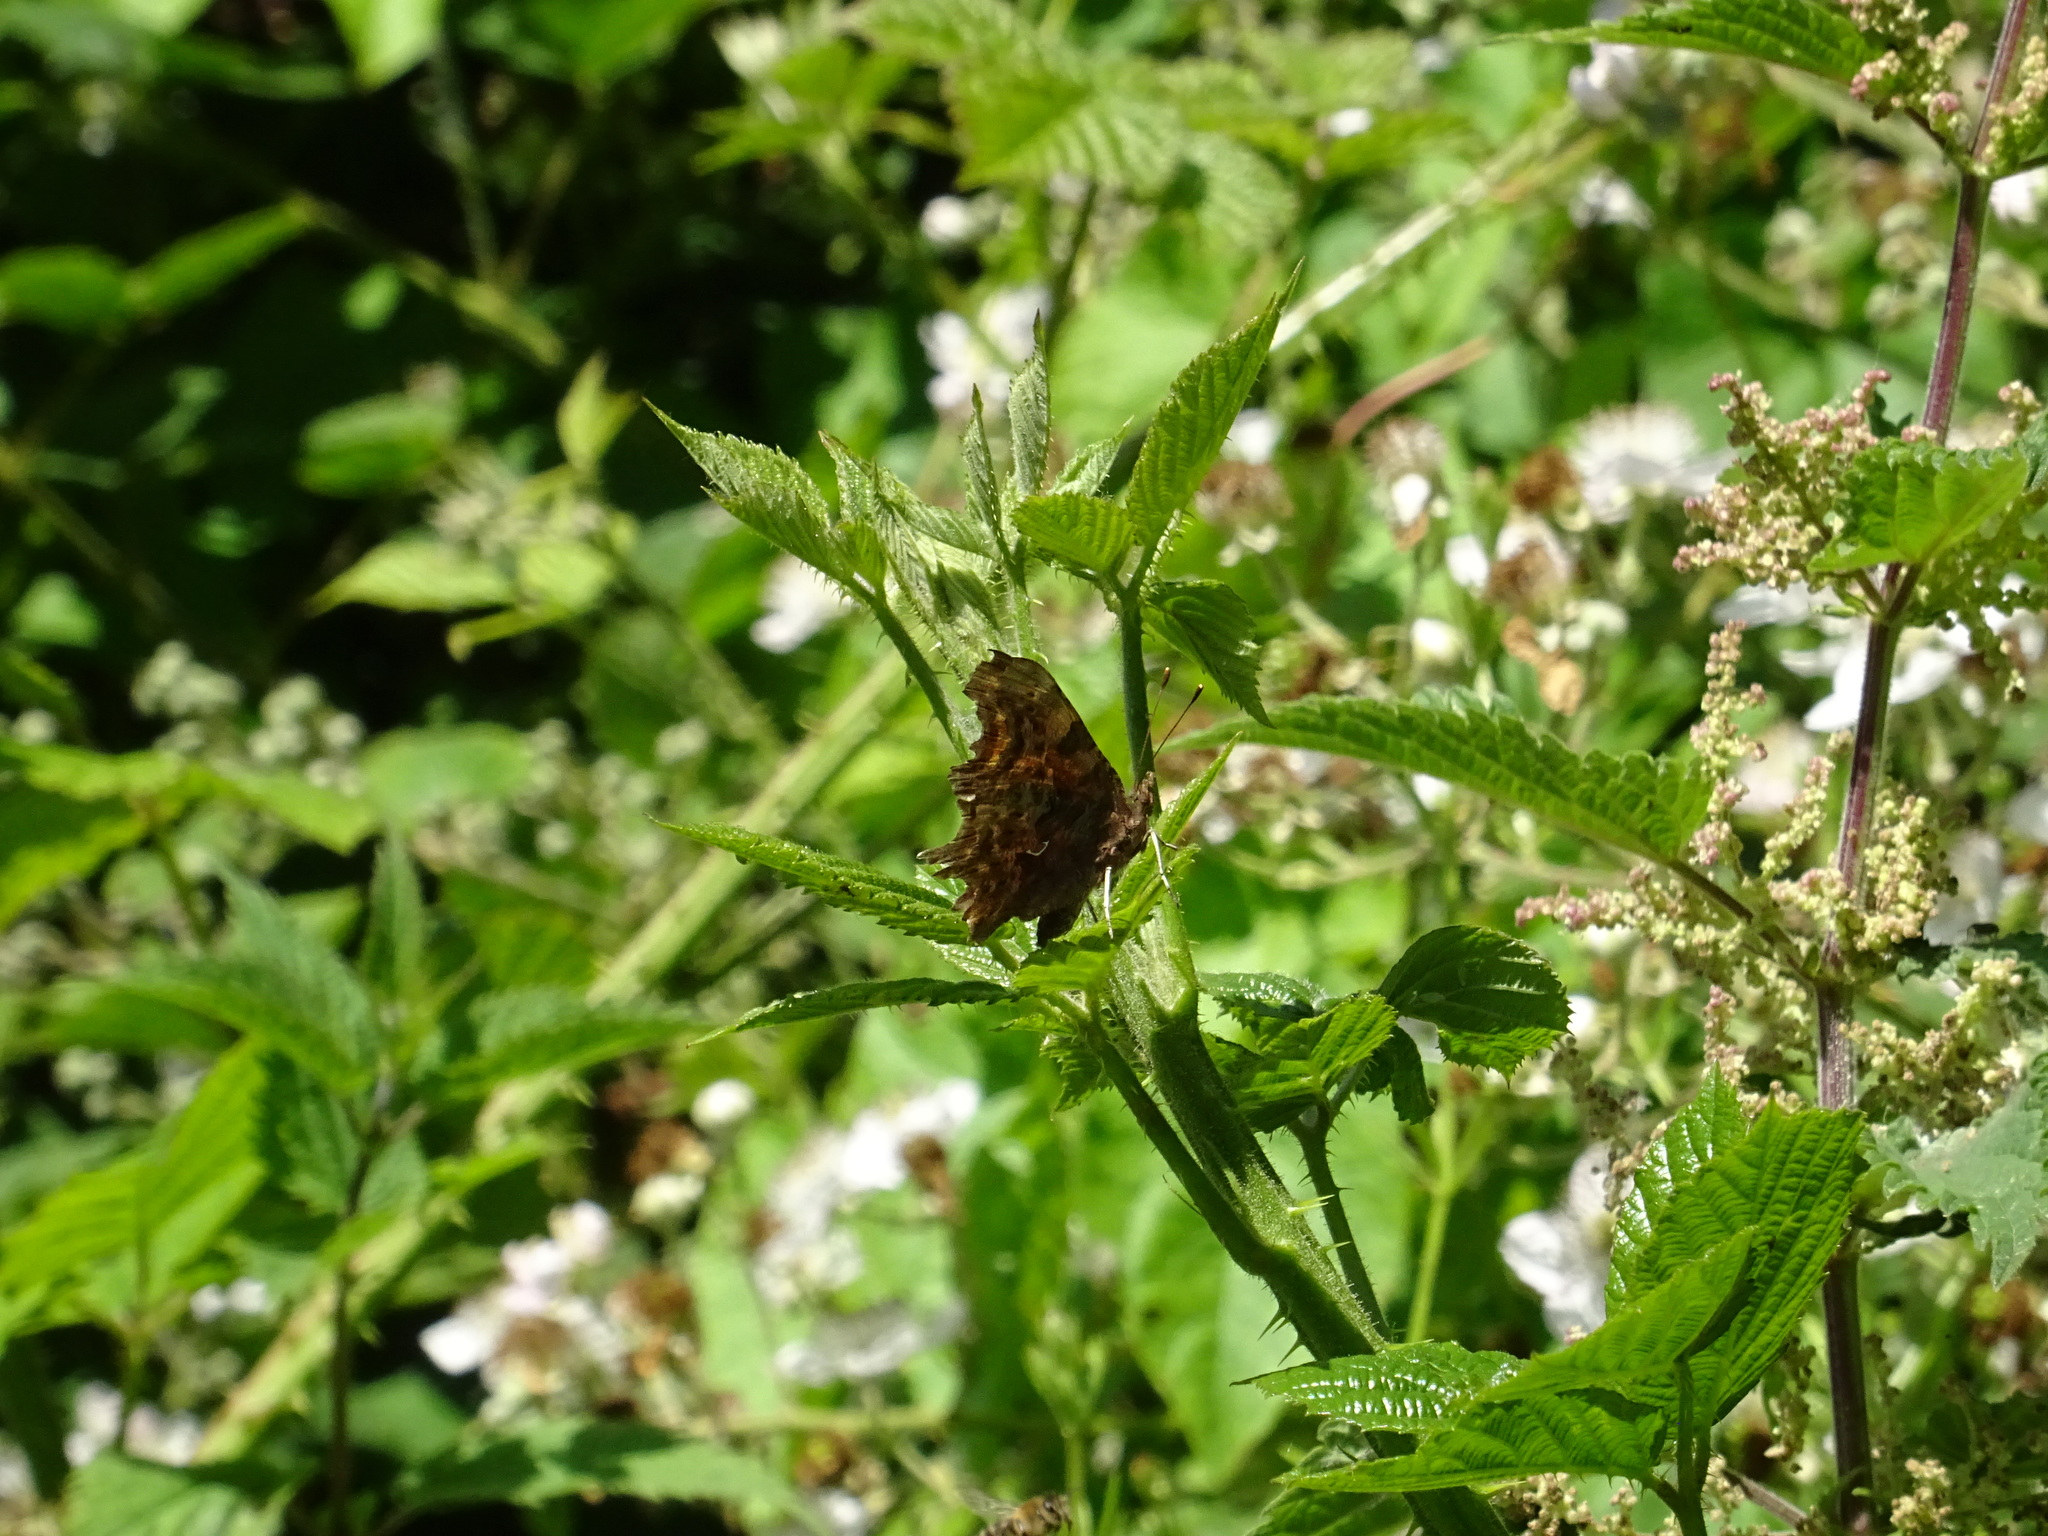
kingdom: Animalia
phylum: Arthropoda
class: Insecta
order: Lepidoptera
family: Nymphalidae
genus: Polygonia
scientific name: Polygonia c-album
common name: Comma
